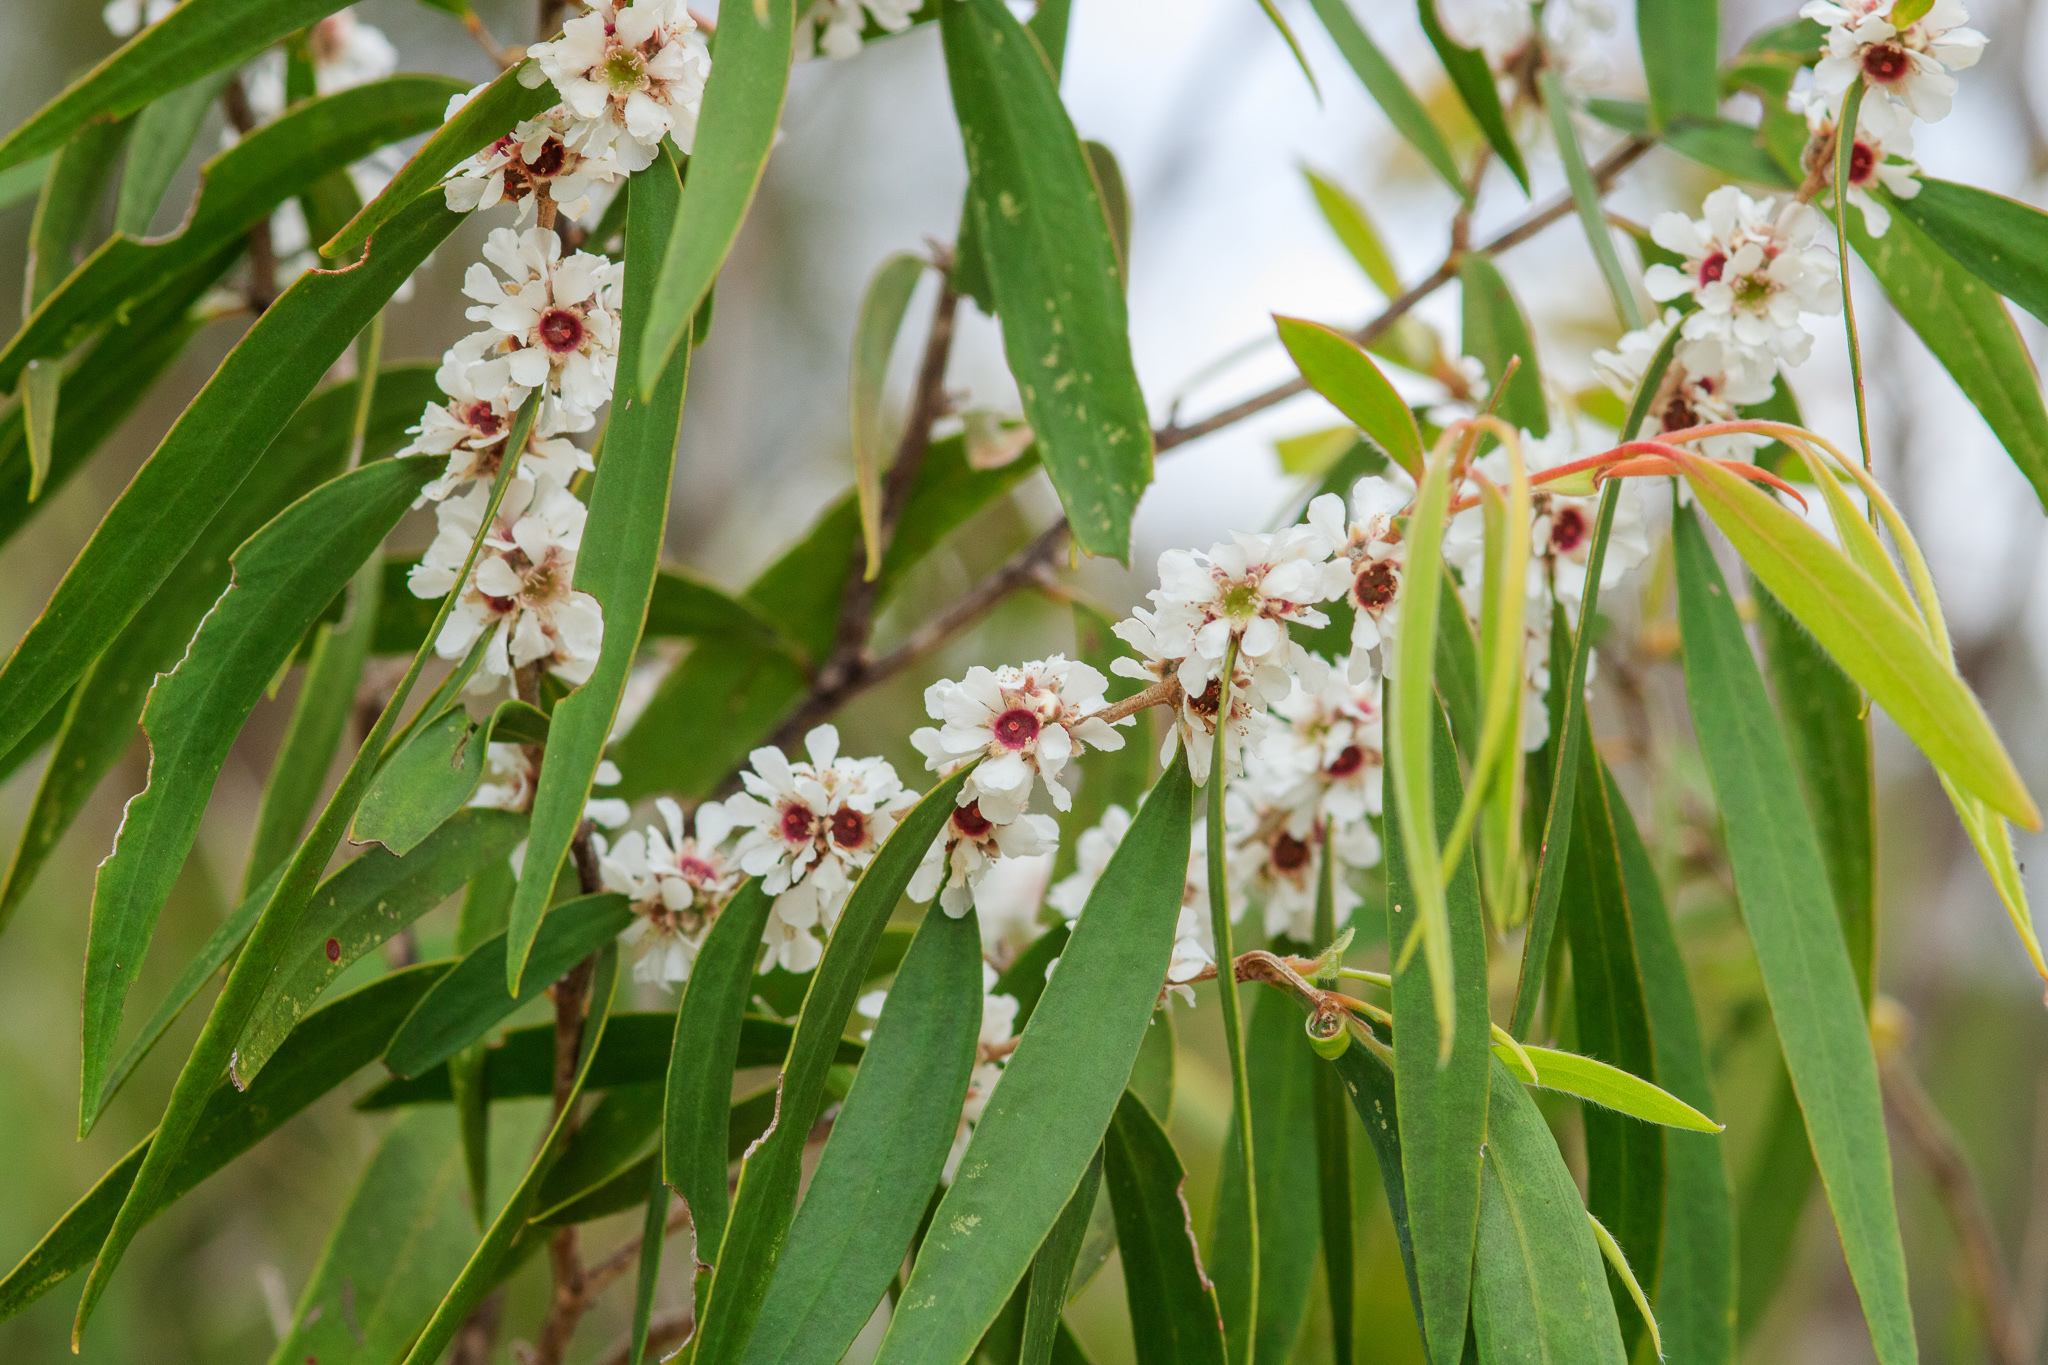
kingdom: Plantae
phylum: Tracheophyta
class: Magnoliopsida
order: Myrtales
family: Myrtaceae
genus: Agonis
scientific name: Agonis flexuosa
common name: Willow myrtle
